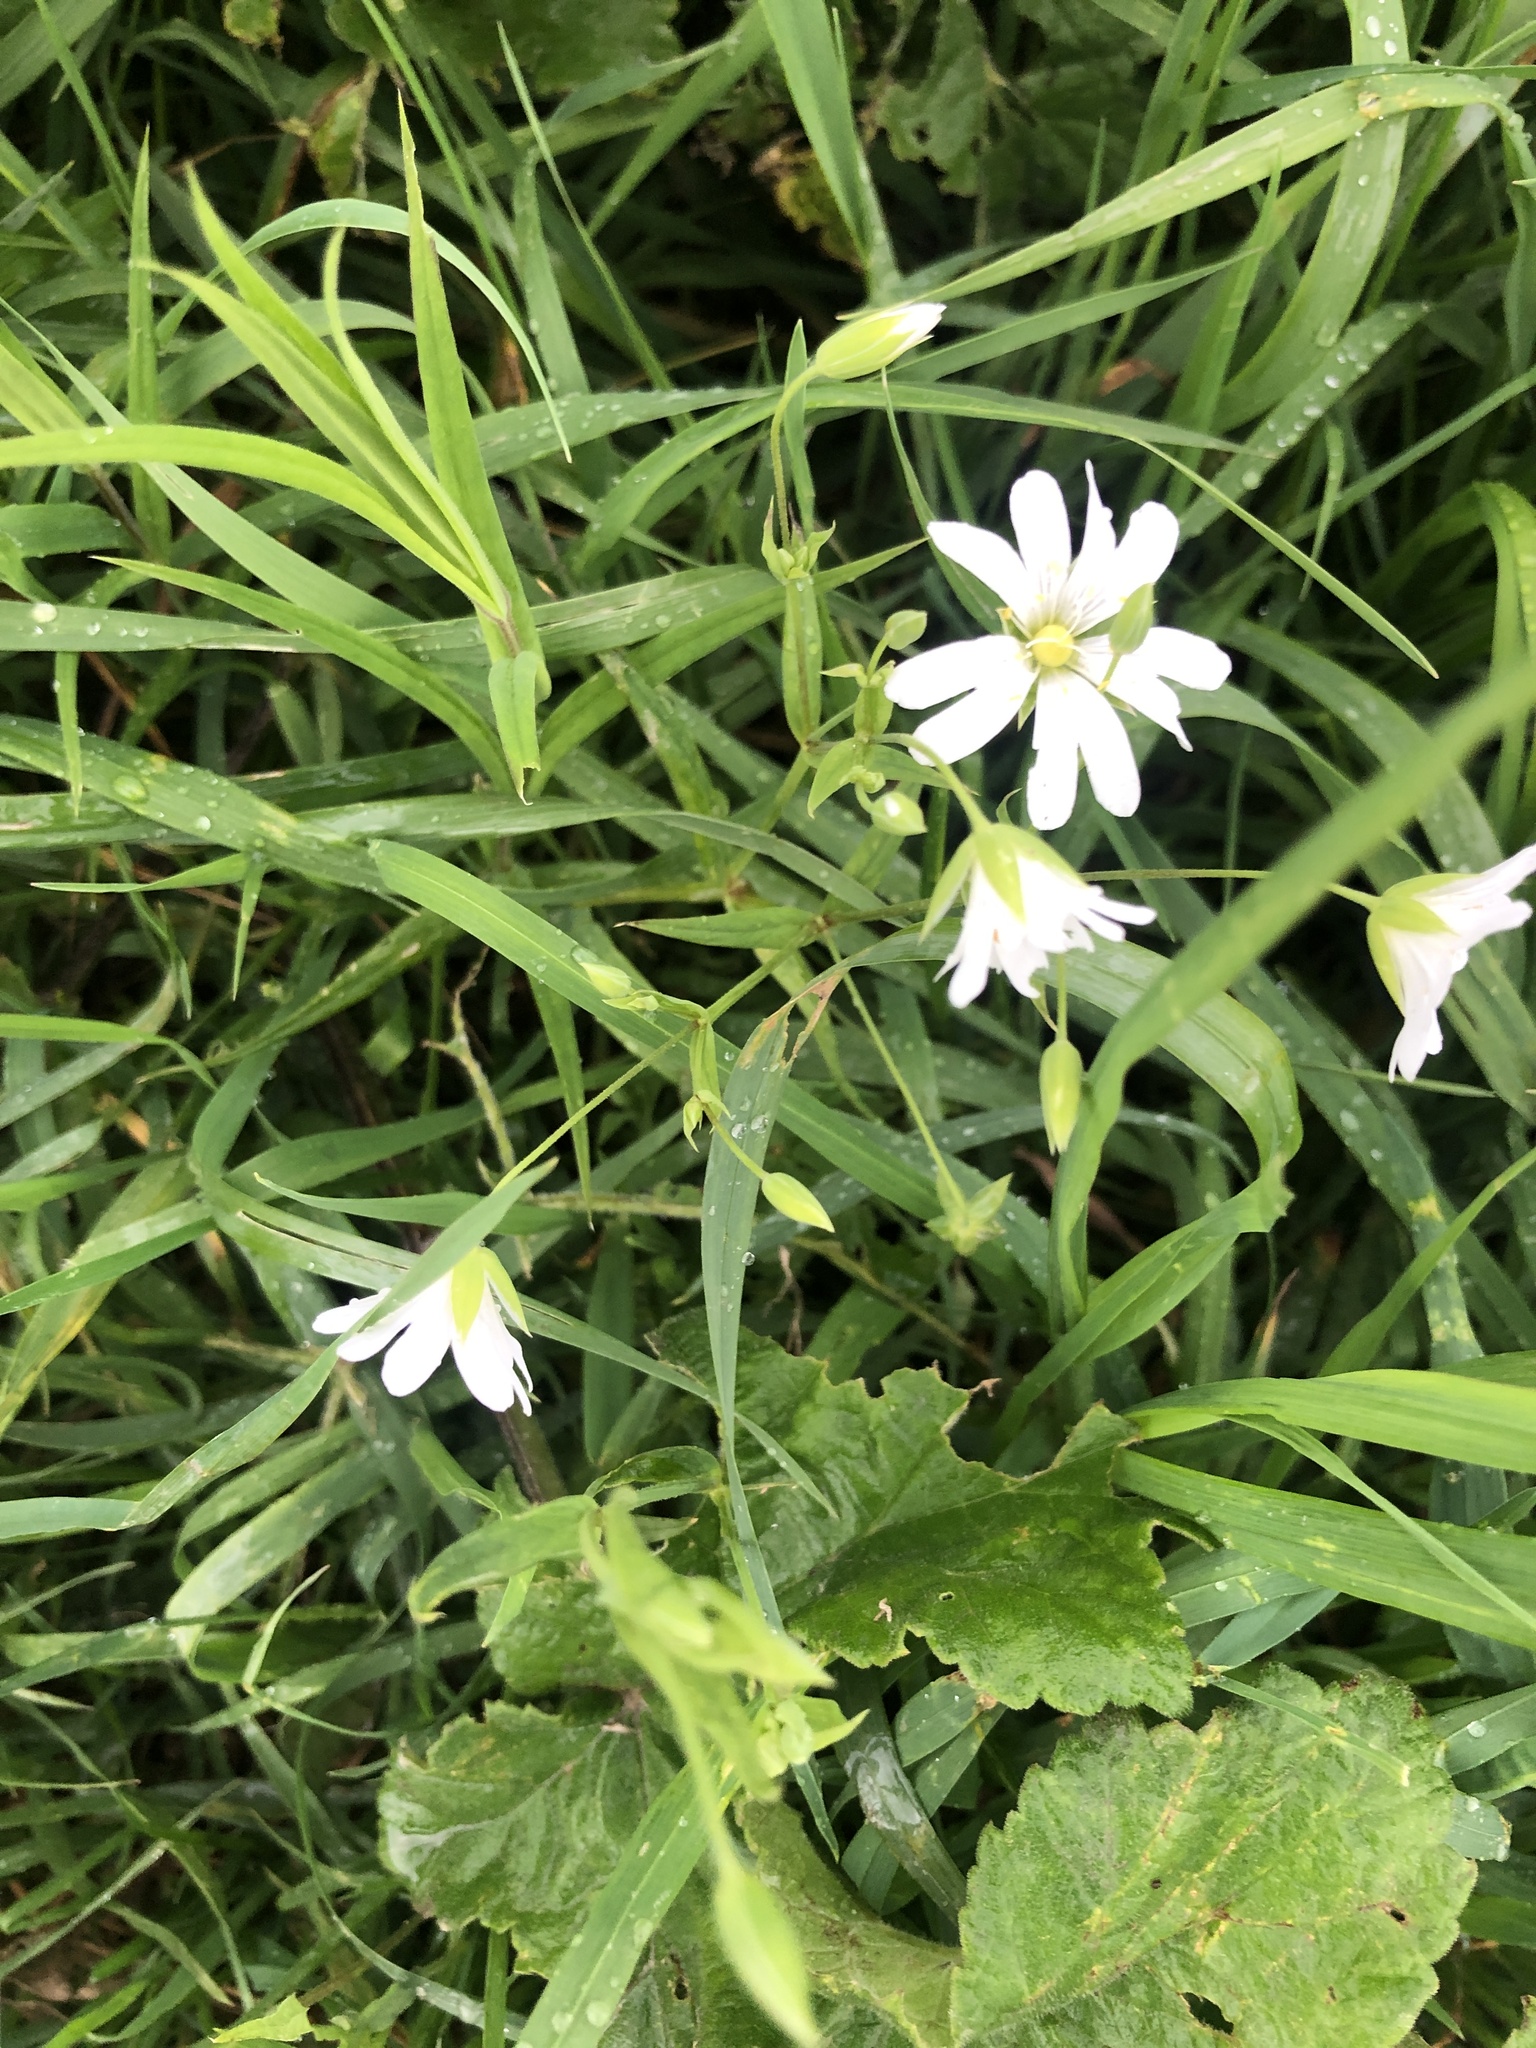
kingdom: Plantae
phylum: Tracheophyta
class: Magnoliopsida
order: Caryophyllales
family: Caryophyllaceae
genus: Rabelera
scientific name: Rabelera holostea
